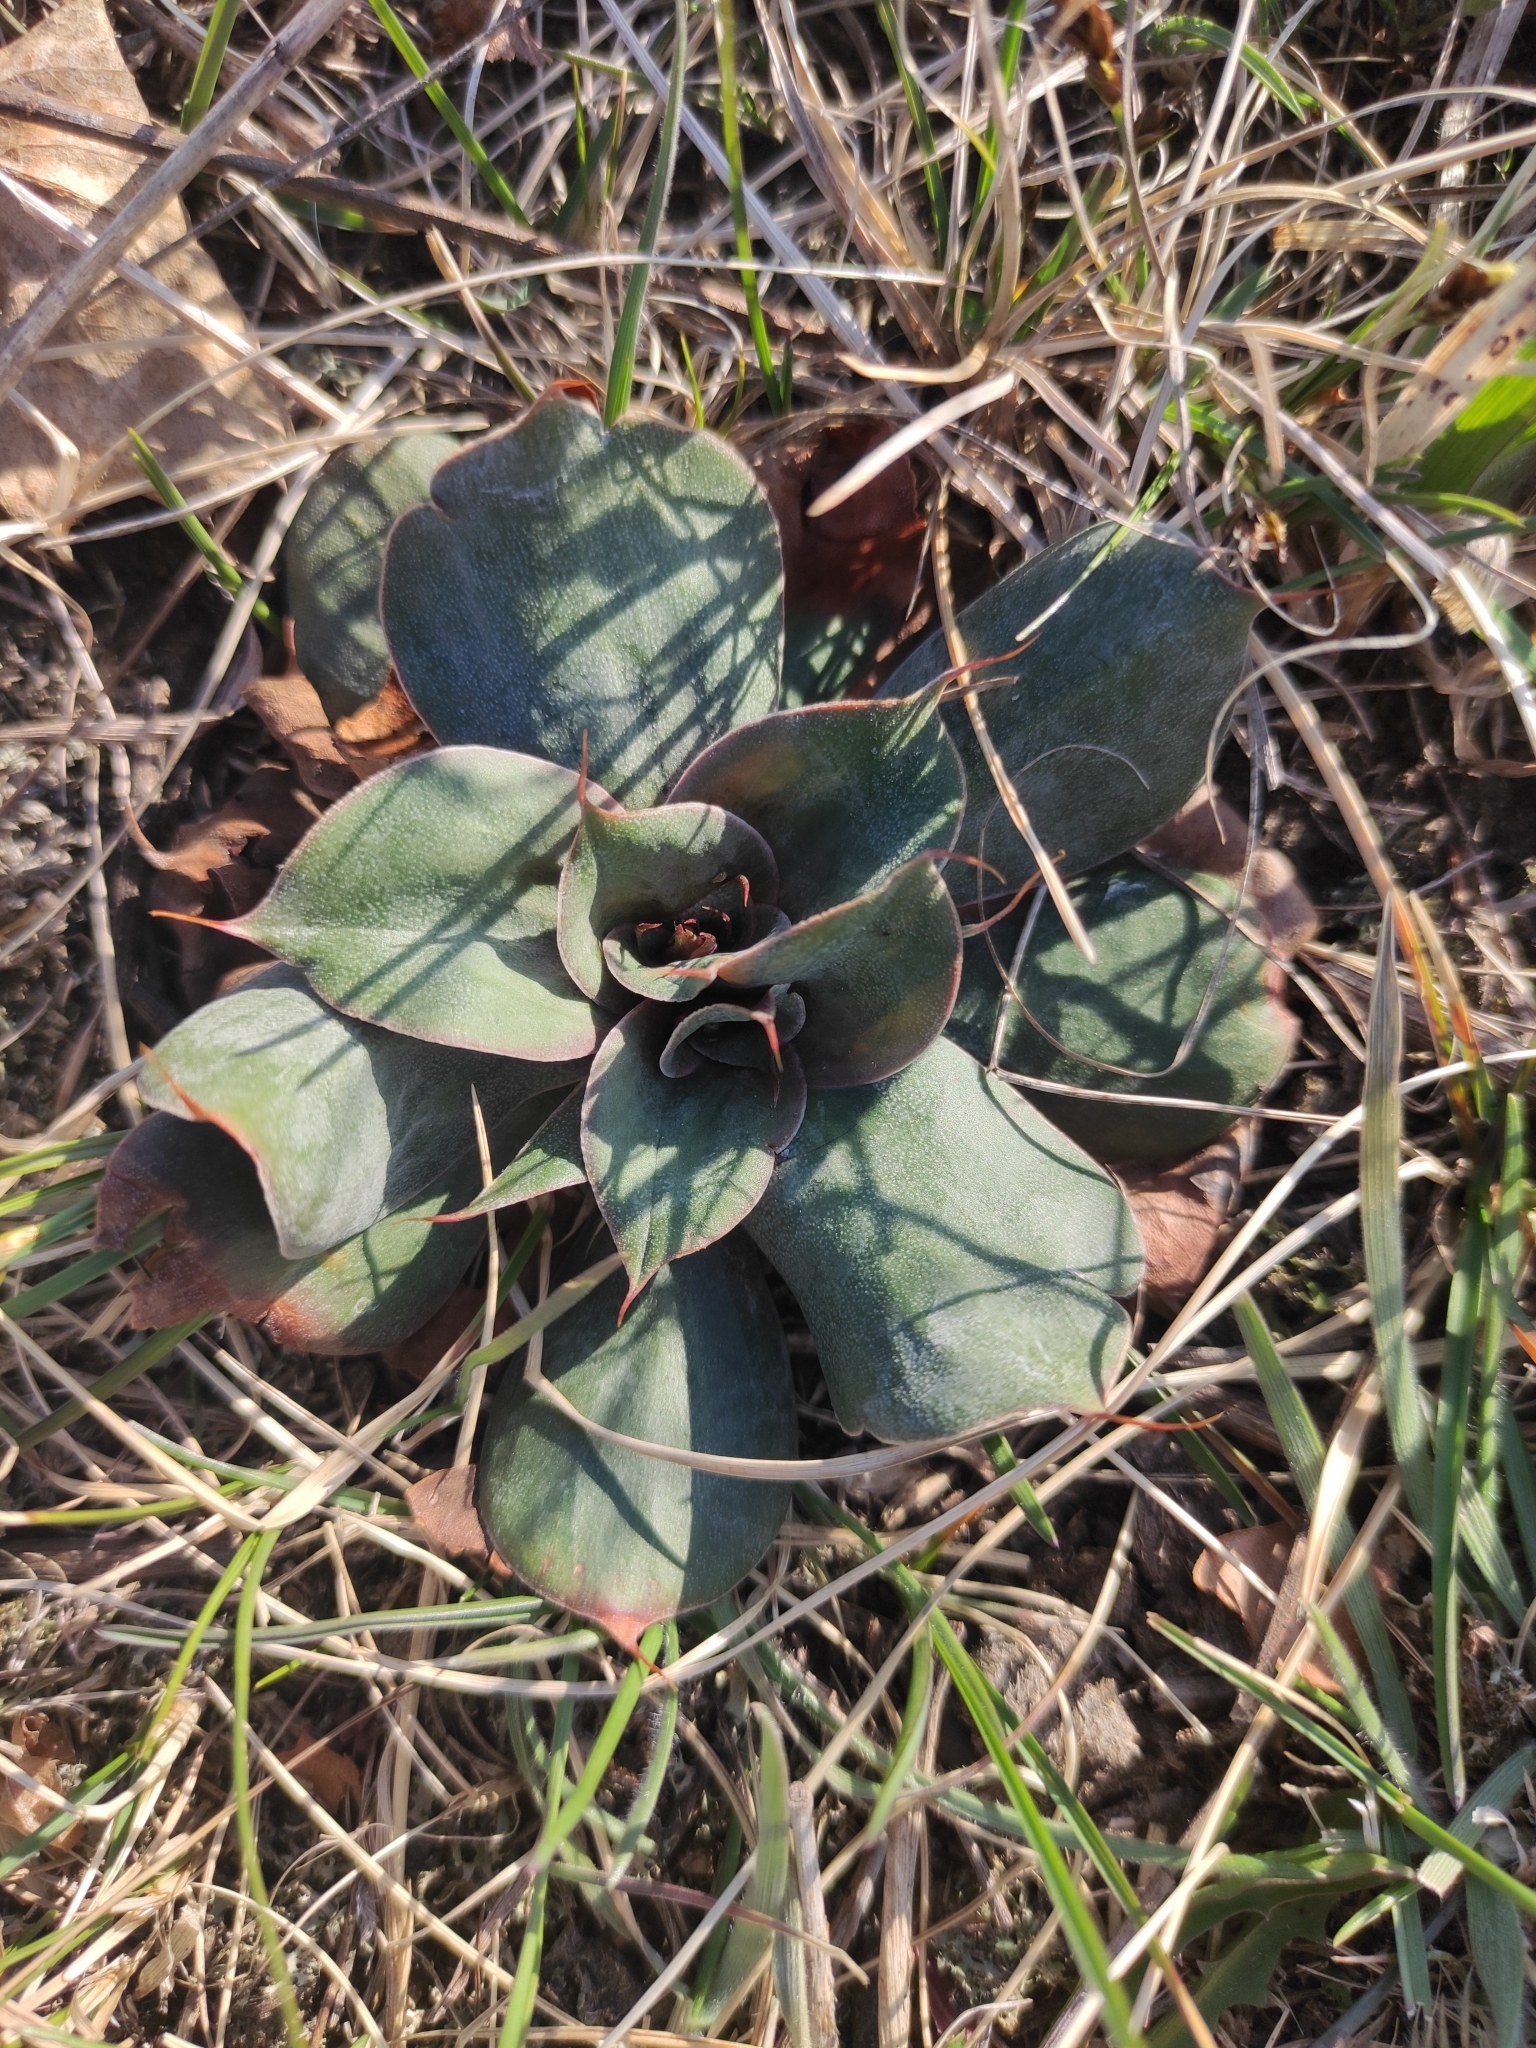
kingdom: Plantae
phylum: Tracheophyta
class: Magnoliopsida
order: Caryophyllales
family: Plumbaginaceae
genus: Goniolimon
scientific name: Goniolimon speciosum
